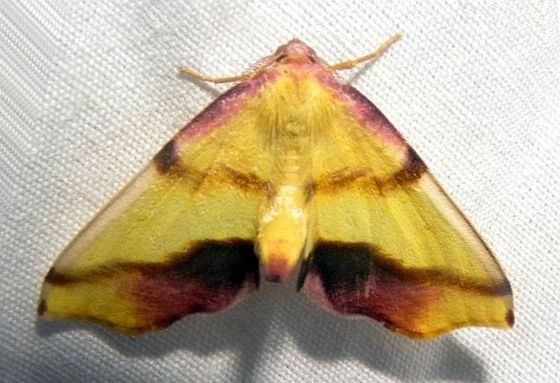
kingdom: Animalia
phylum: Arthropoda
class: Insecta
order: Lepidoptera
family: Geometridae
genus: Plagodis
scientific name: Plagodis serinaria
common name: Lemon plagodis
